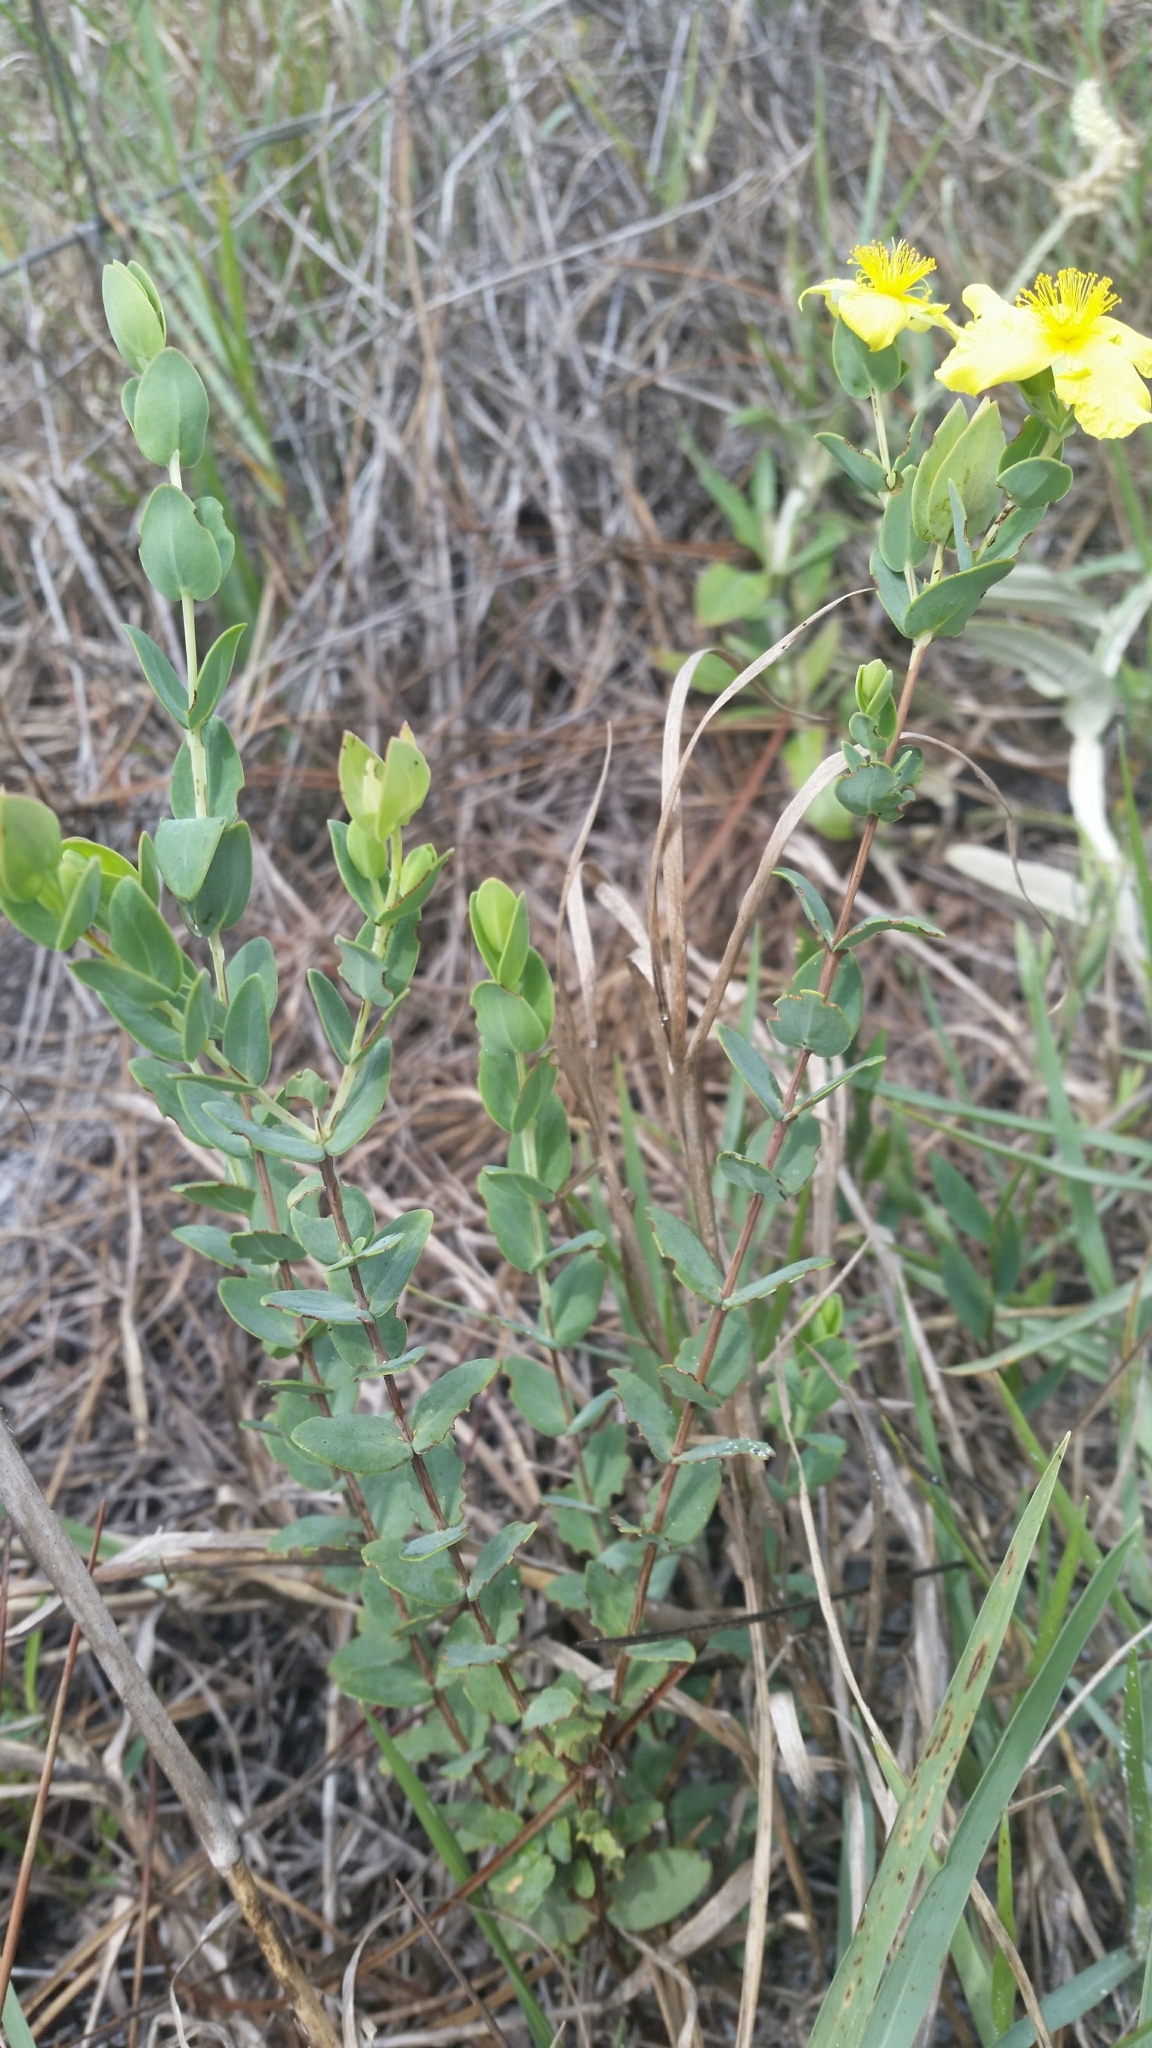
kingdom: Plantae
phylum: Tracheophyta
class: Magnoliopsida
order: Malpighiales
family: Hypericaceae
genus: Hypericum
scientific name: Hypericum tetrapetalum
